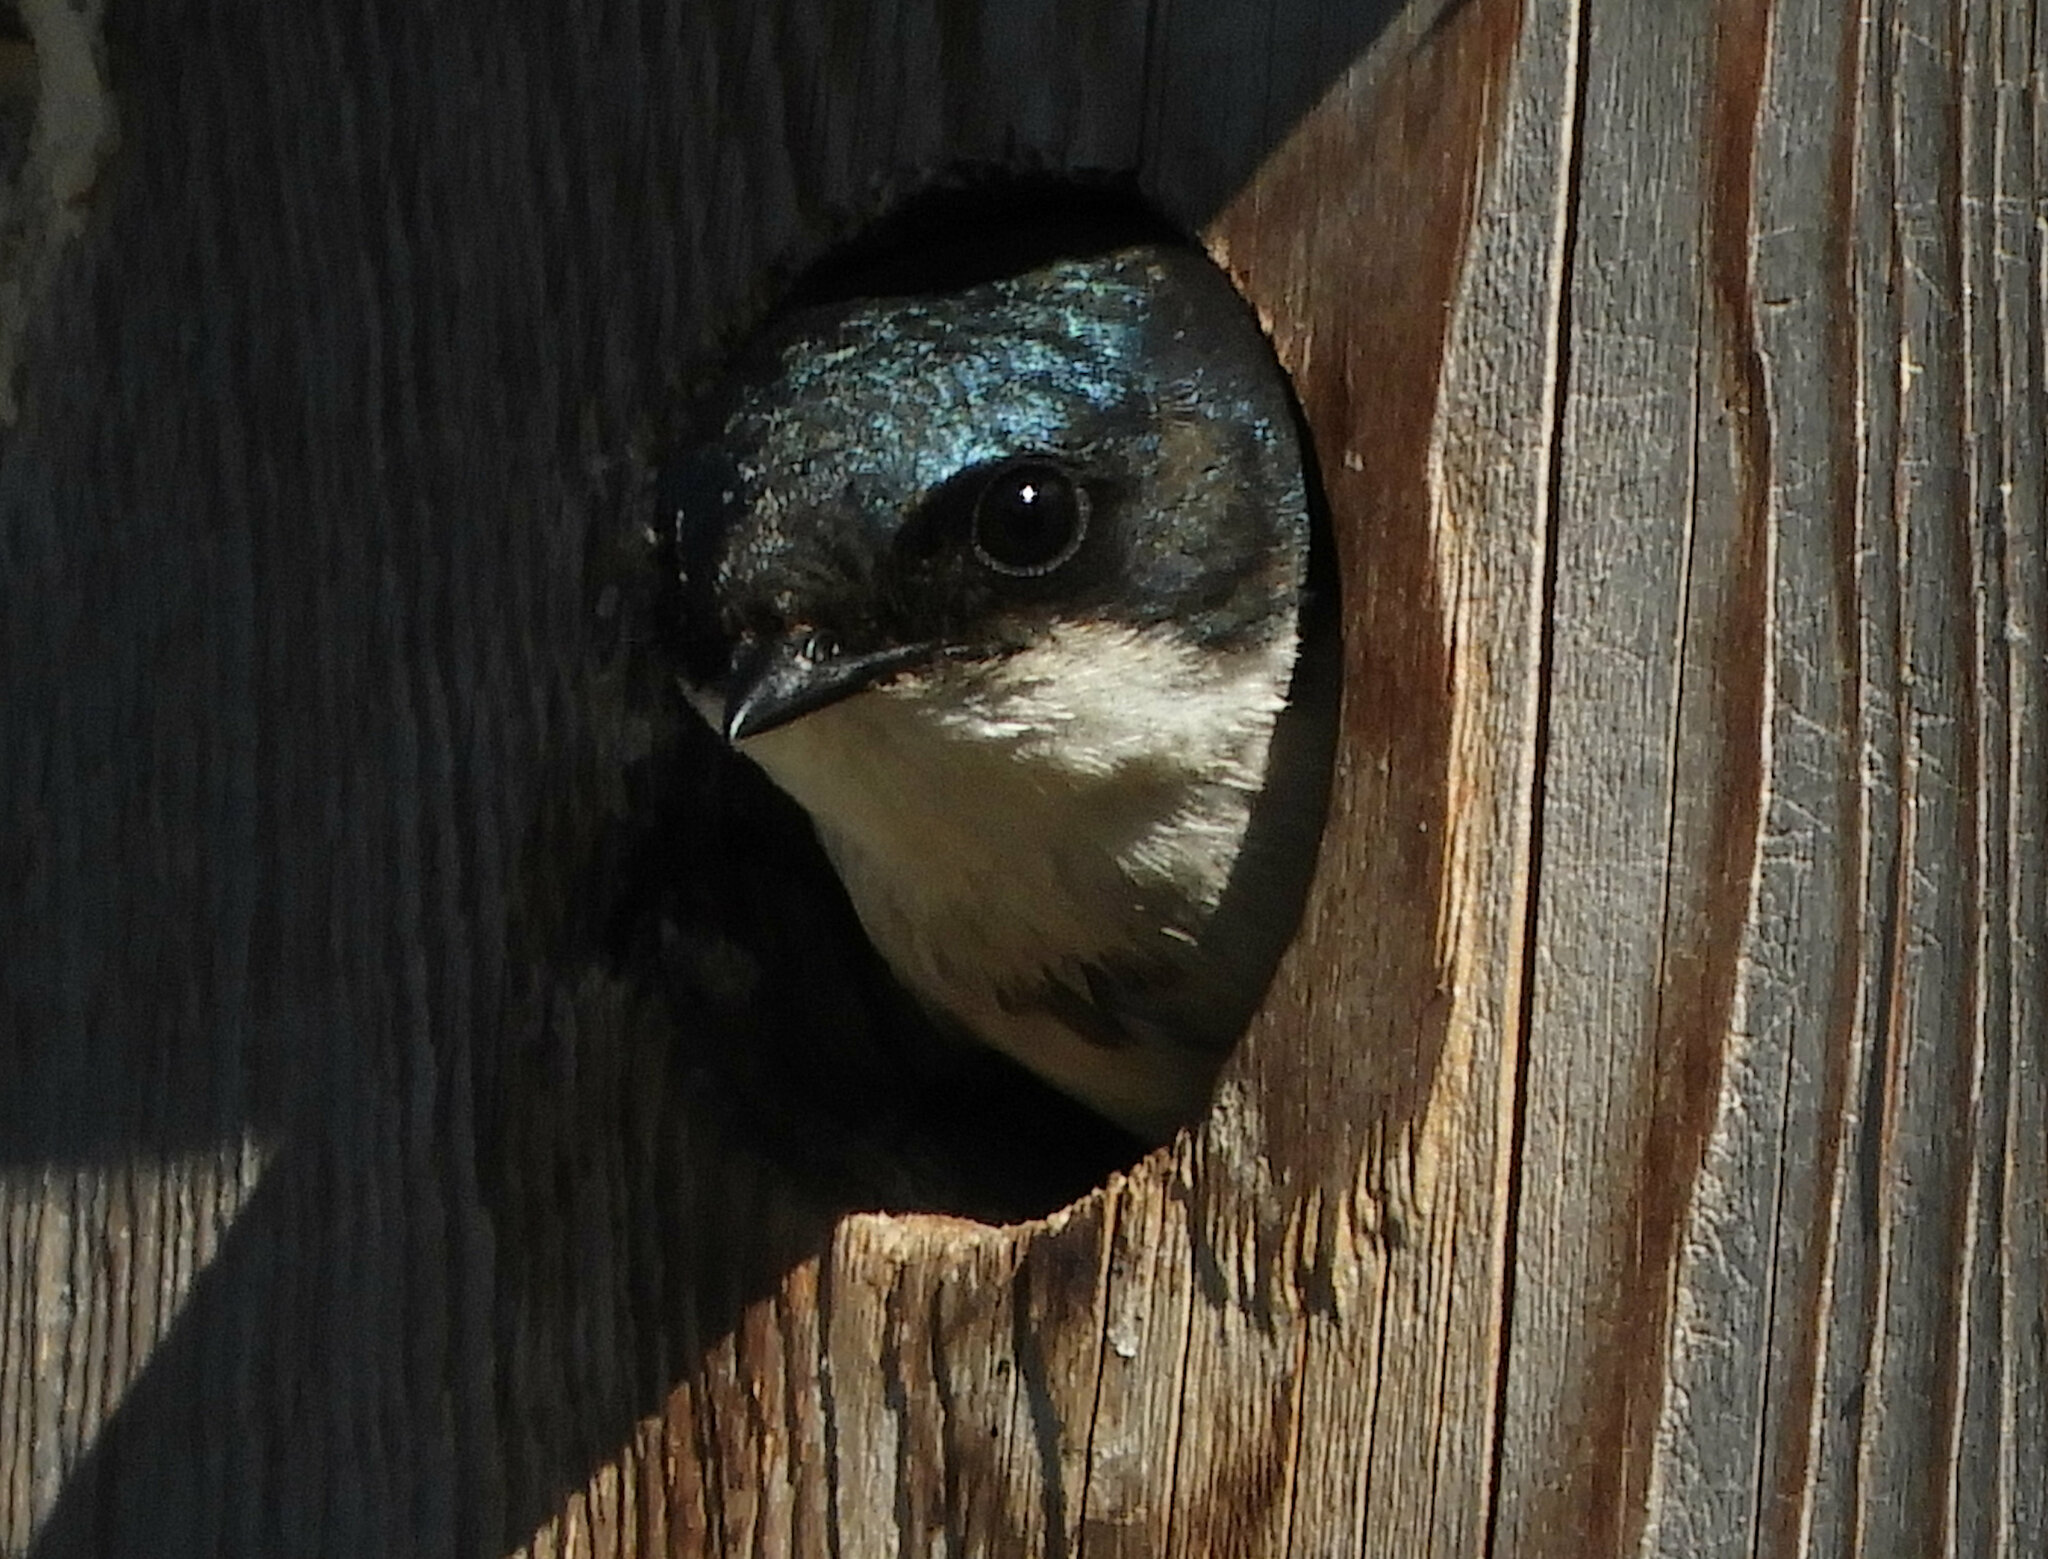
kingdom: Animalia
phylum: Chordata
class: Aves
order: Passeriformes
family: Hirundinidae
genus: Tachycineta
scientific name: Tachycineta bicolor
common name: Tree swallow
